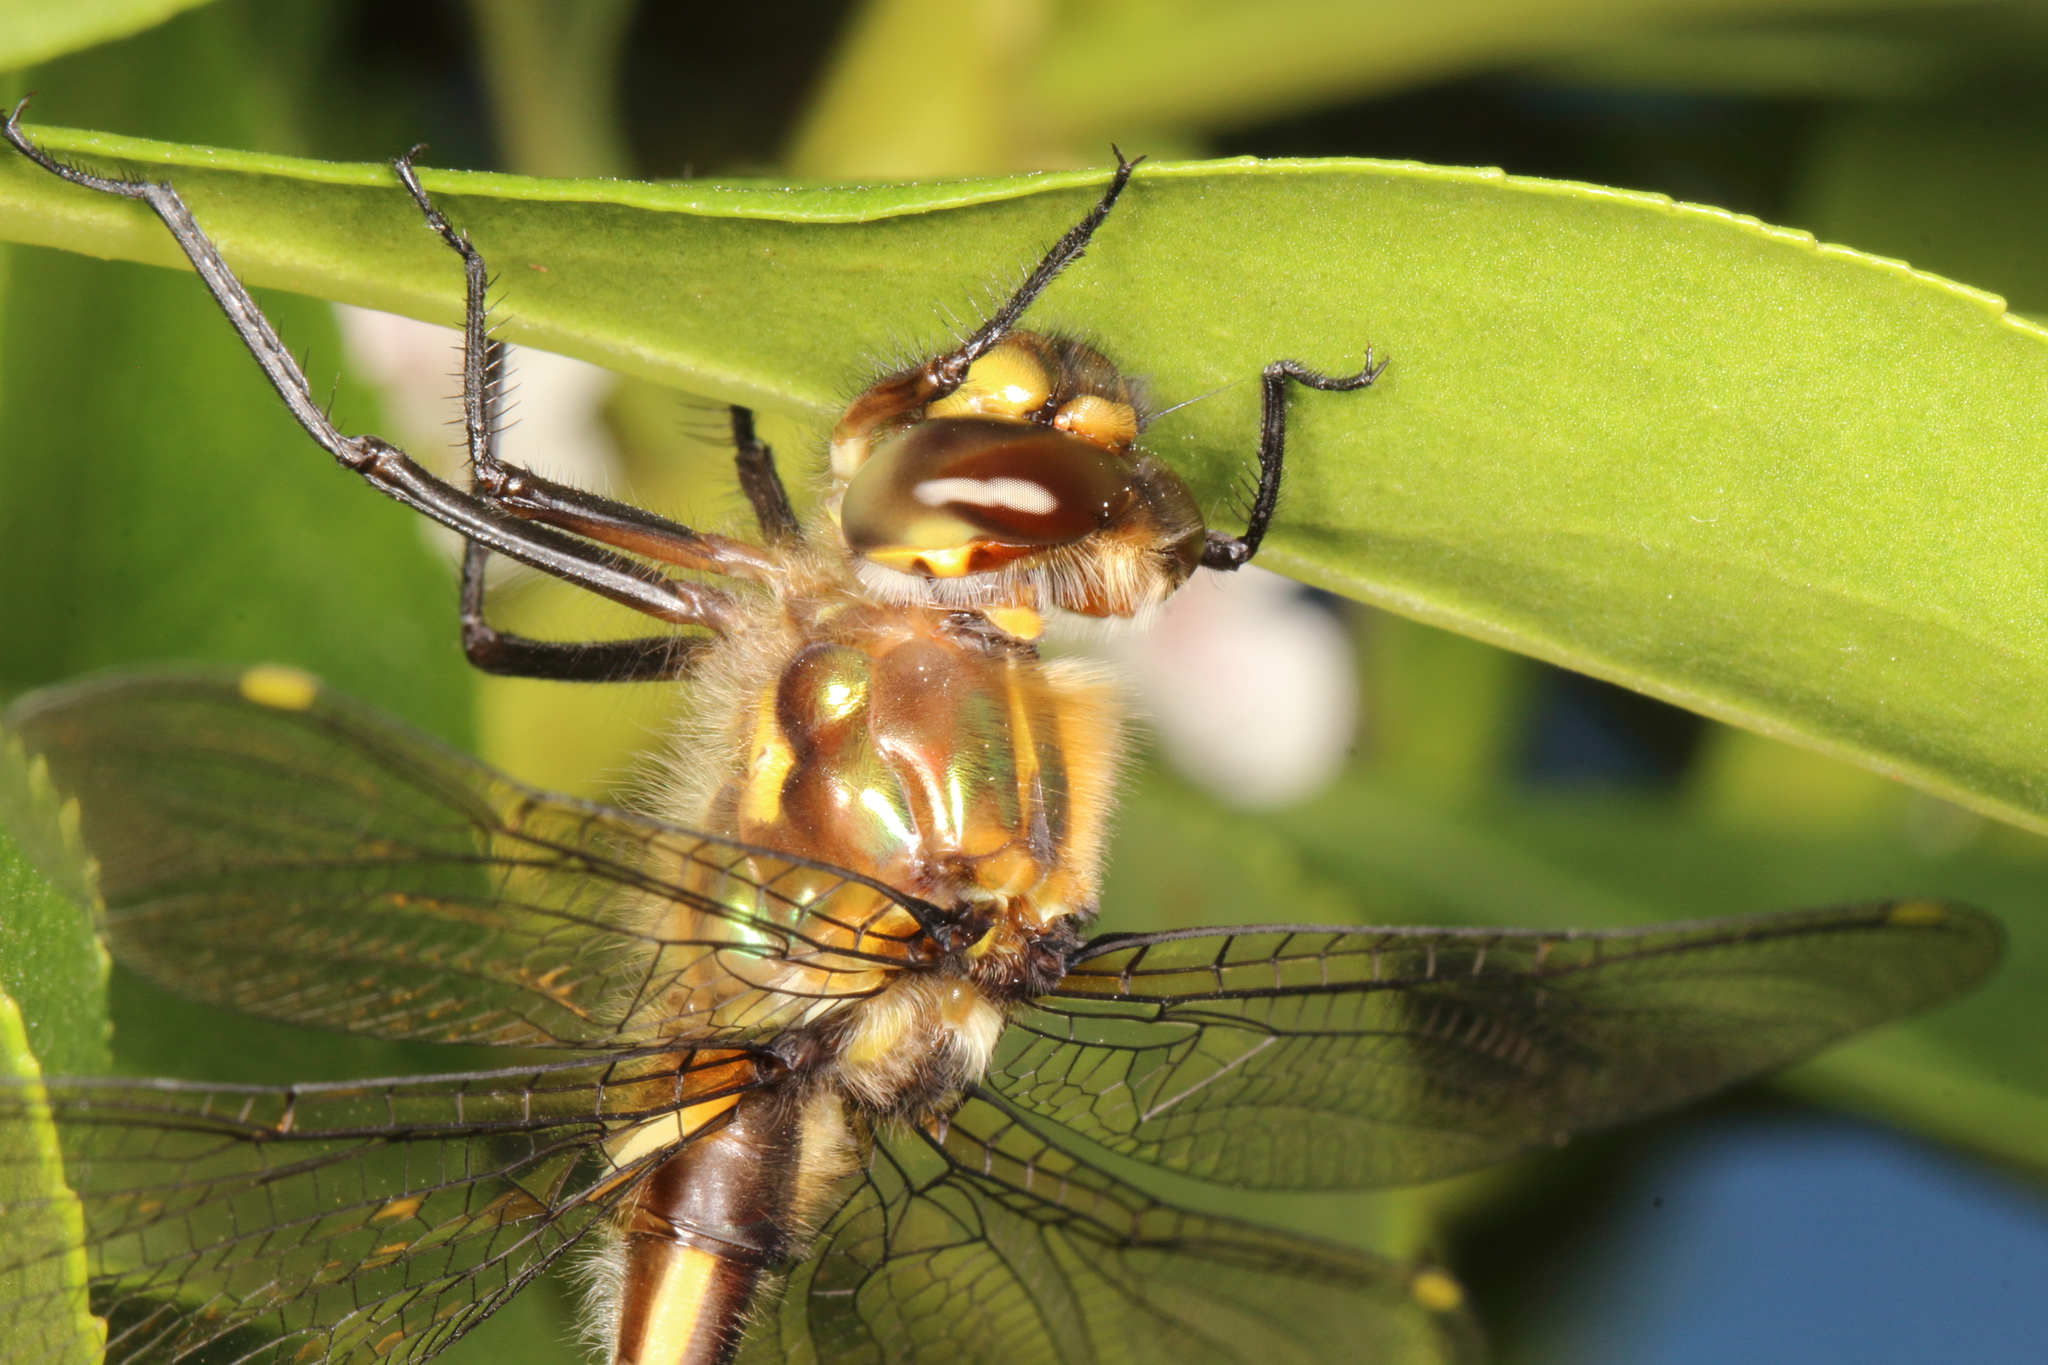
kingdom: Animalia
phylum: Arthropoda
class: Insecta
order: Odonata
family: Corduliidae
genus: Procordulia
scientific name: Procordulia grayi
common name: Yellow spotted dragonfly
